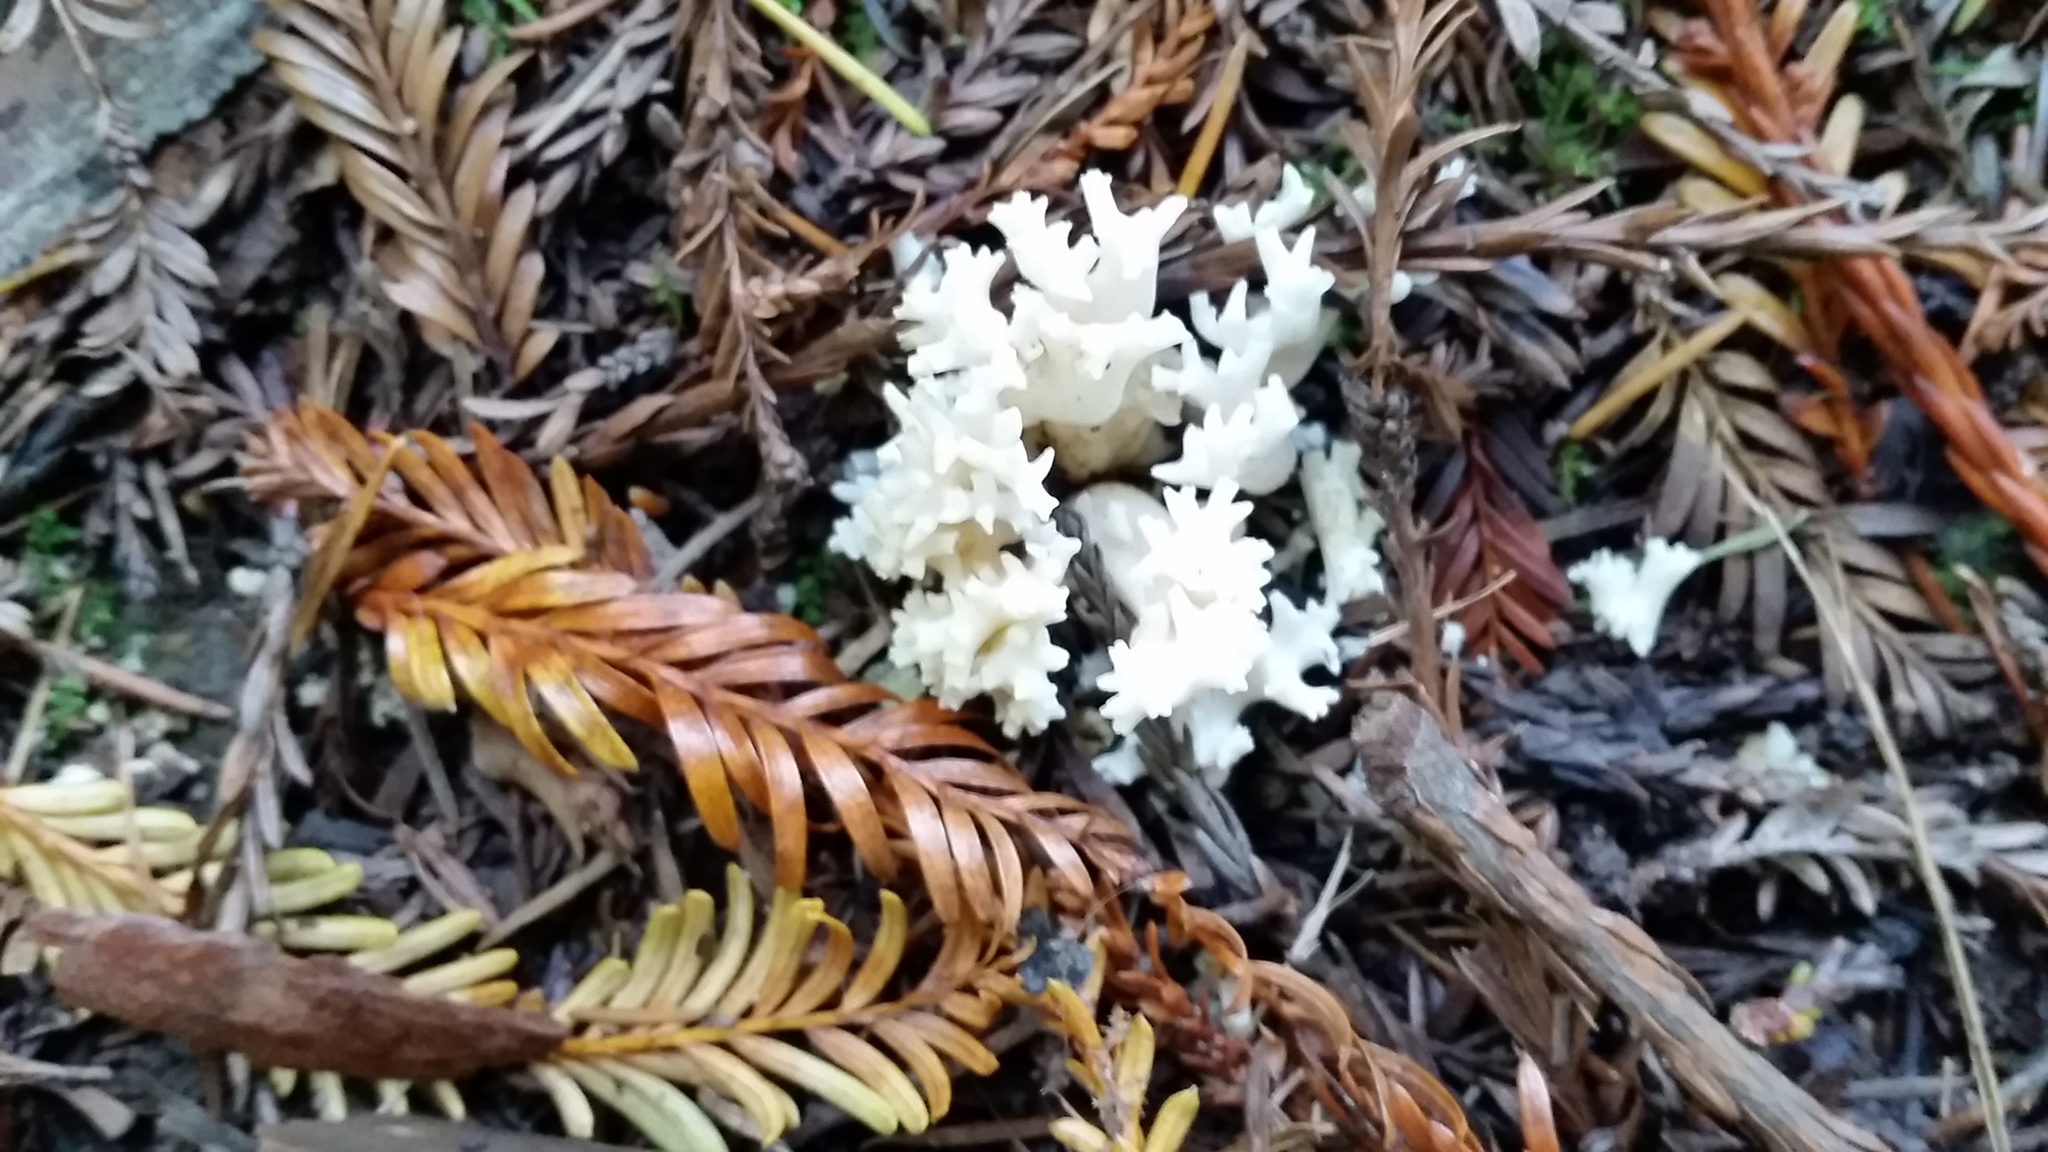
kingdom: Fungi
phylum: Basidiomycota
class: Agaricomycetes
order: Cantharellales
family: Hydnaceae
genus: Clavulina
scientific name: Clavulina coralloides
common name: Crested coral
